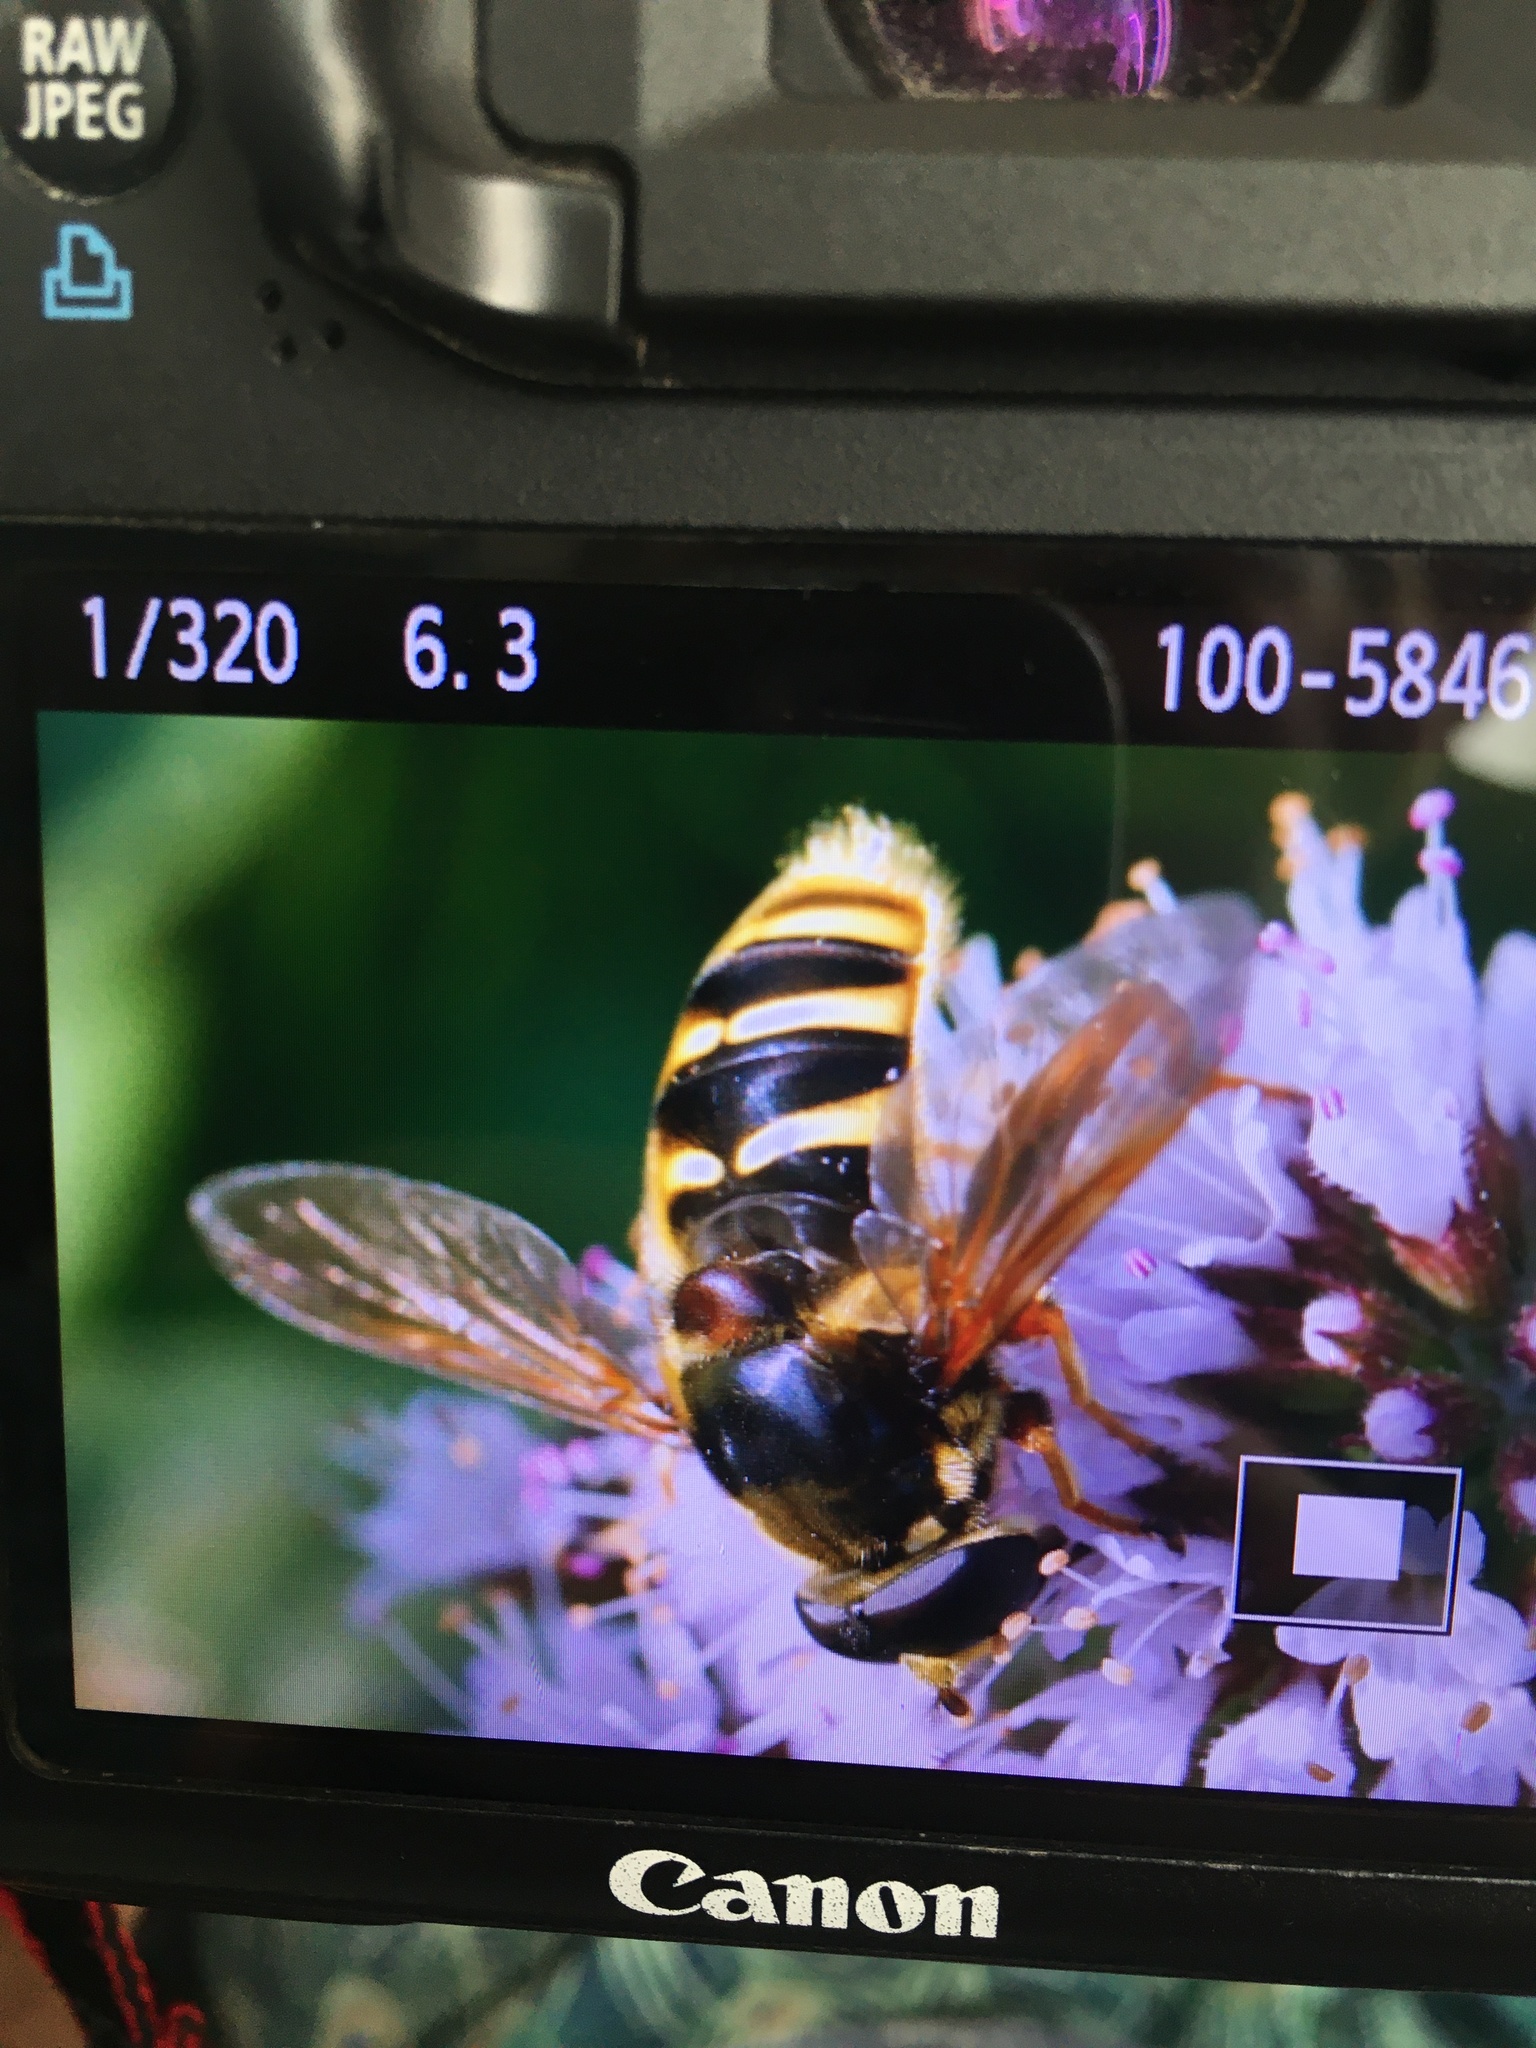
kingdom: Animalia
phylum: Arthropoda
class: Insecta
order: Diptera
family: Syrphidae
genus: Sericomyia
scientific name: Sericomyia silentis
